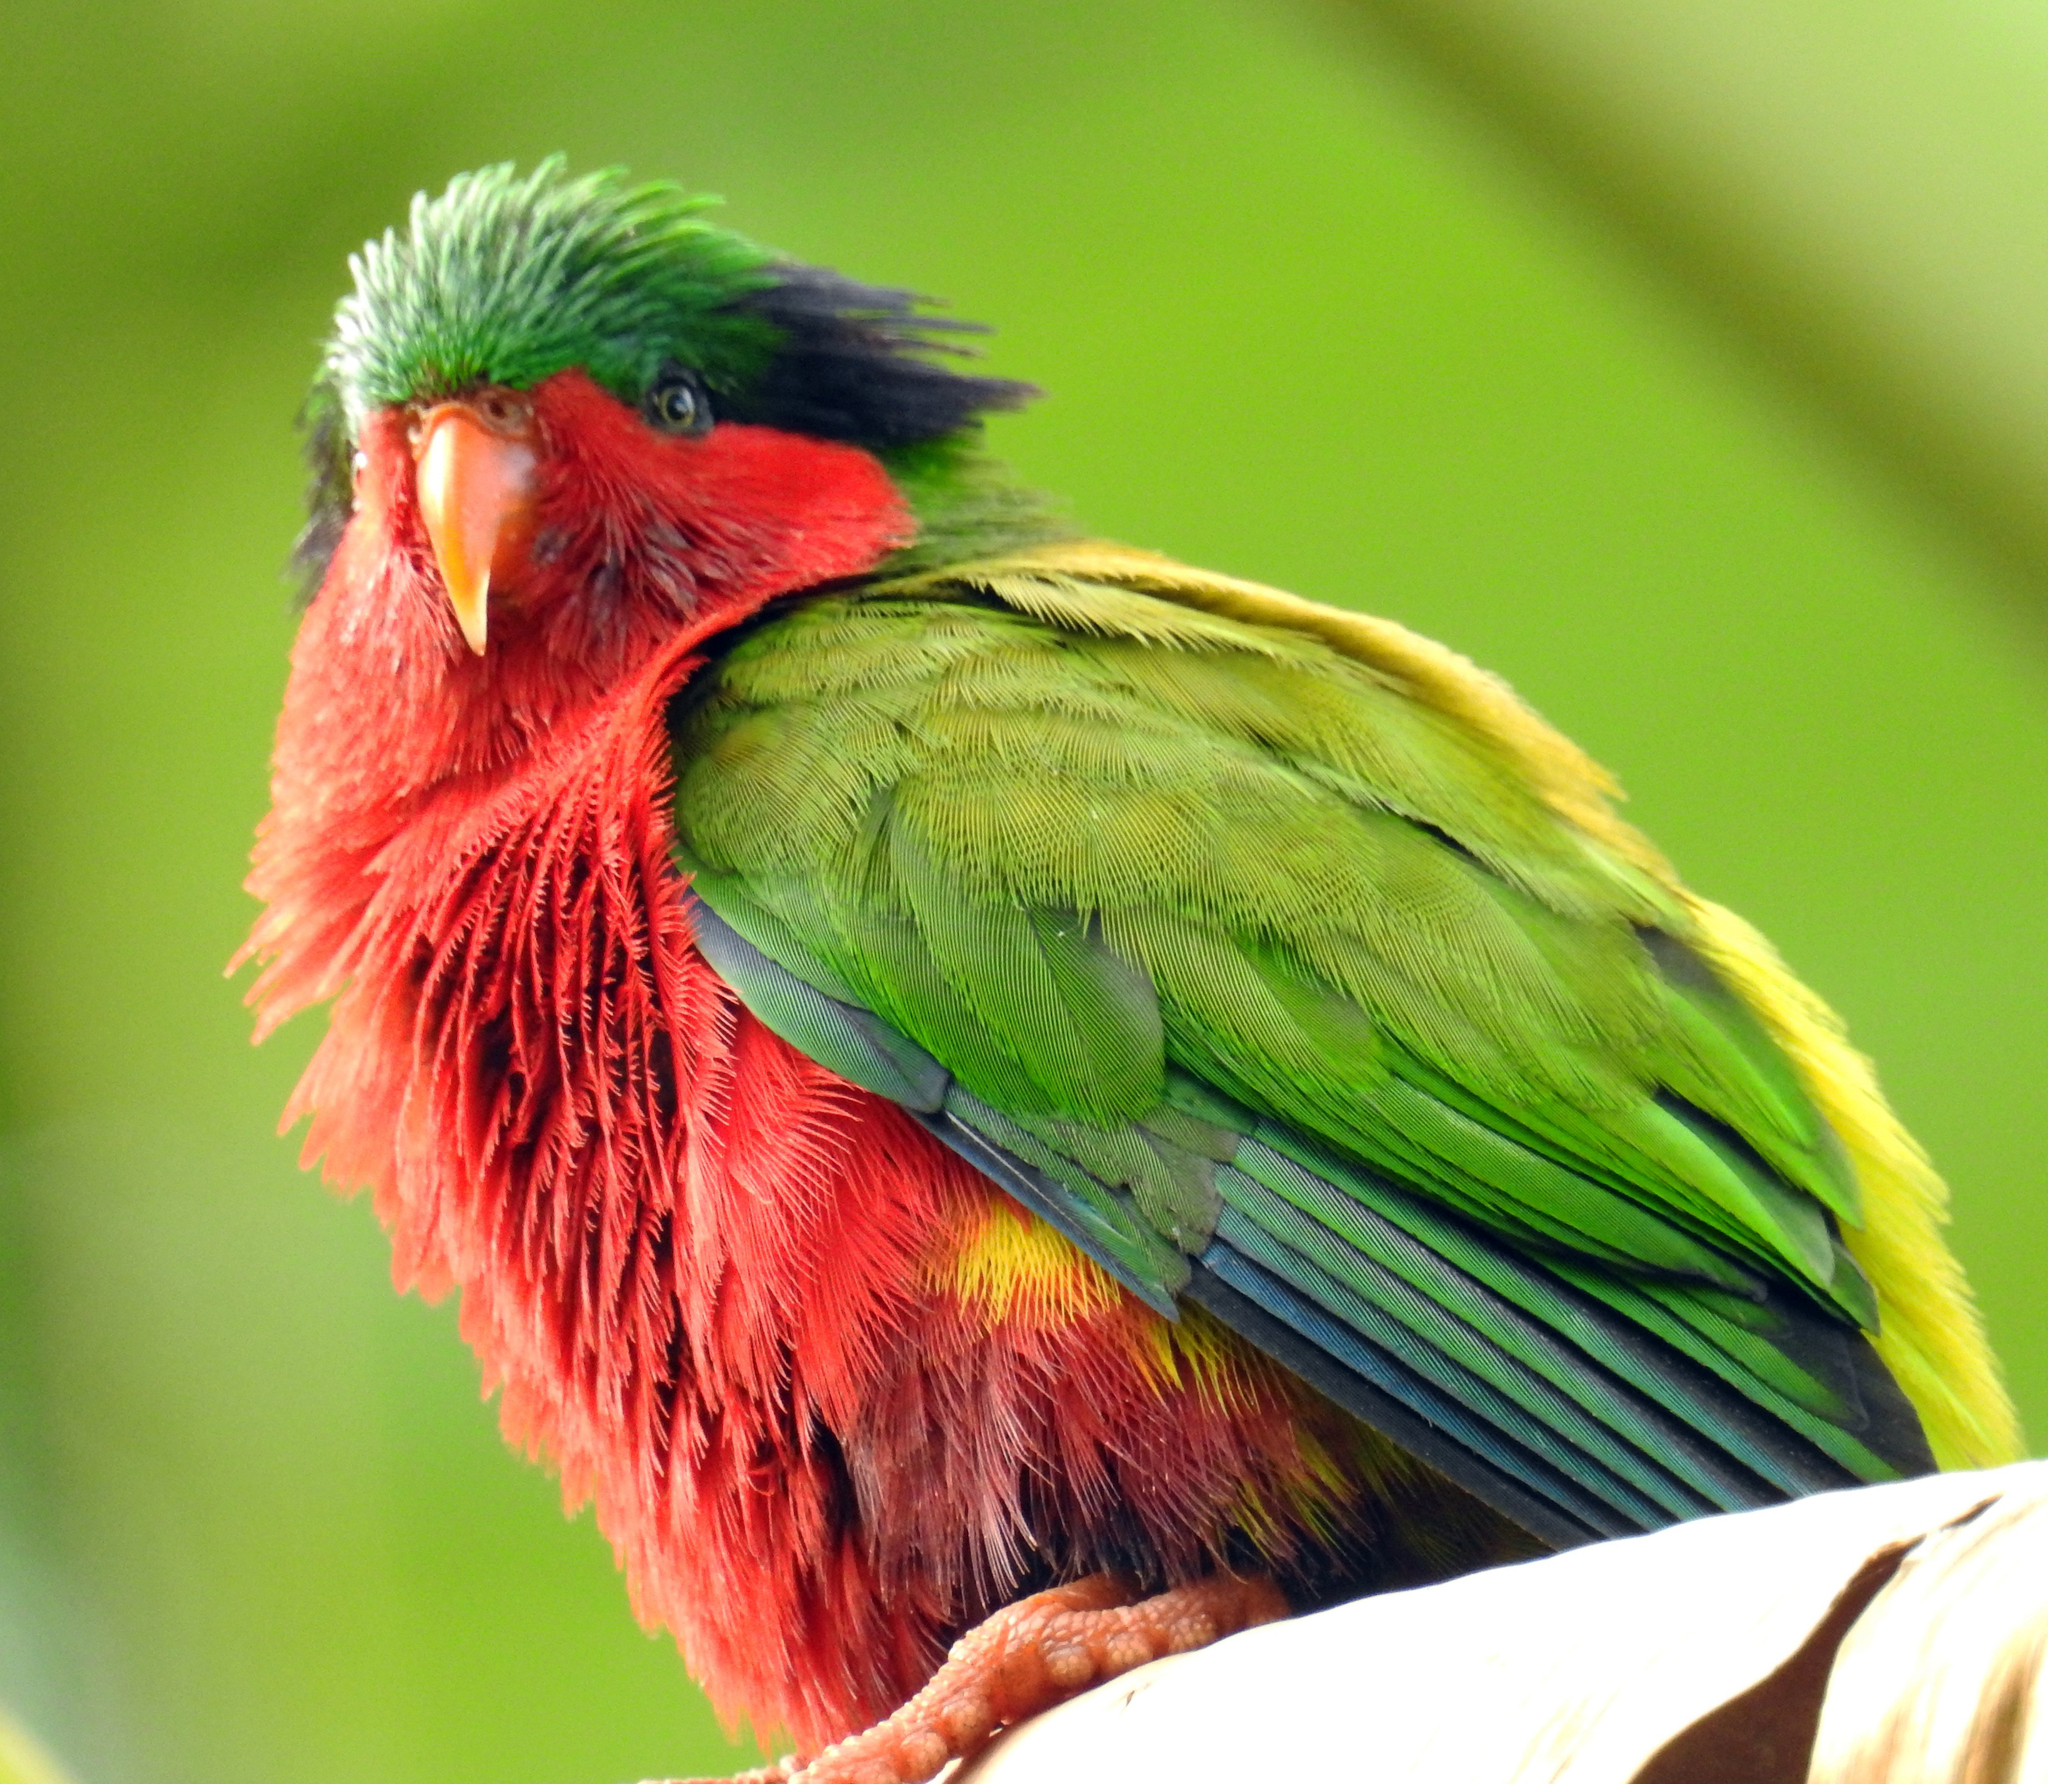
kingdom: Animalia
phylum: Chordata
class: Aves
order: Psittaciformes
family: Psittacidae
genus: Vini
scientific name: Vini kuhlii
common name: Kuhl's lorikeet
